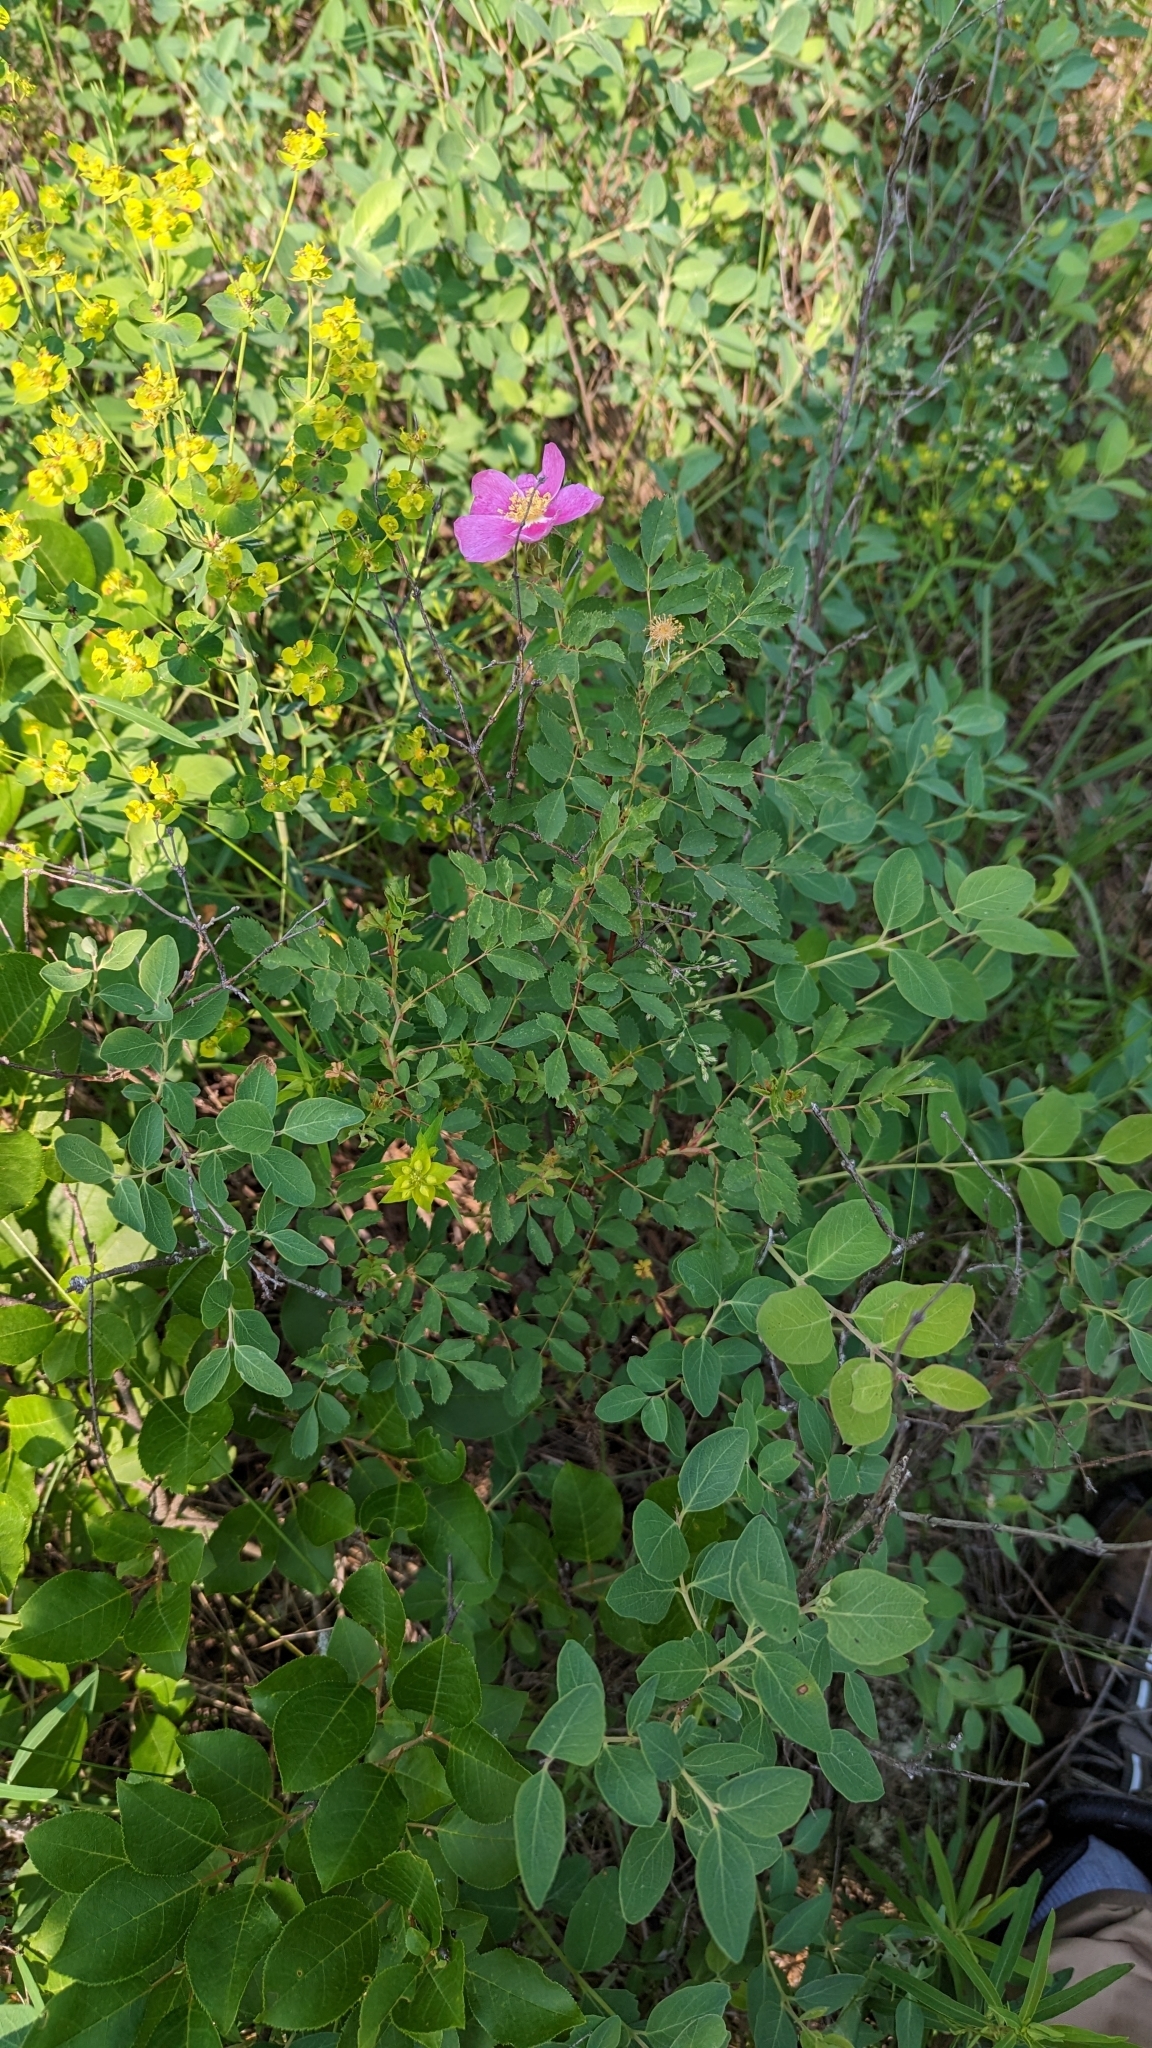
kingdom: Plantae
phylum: Tracheophyta
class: Magnoliopsida
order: Rosales
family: Rosaceae
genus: Rosa
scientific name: Rosa woodsii
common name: Woods's rose
